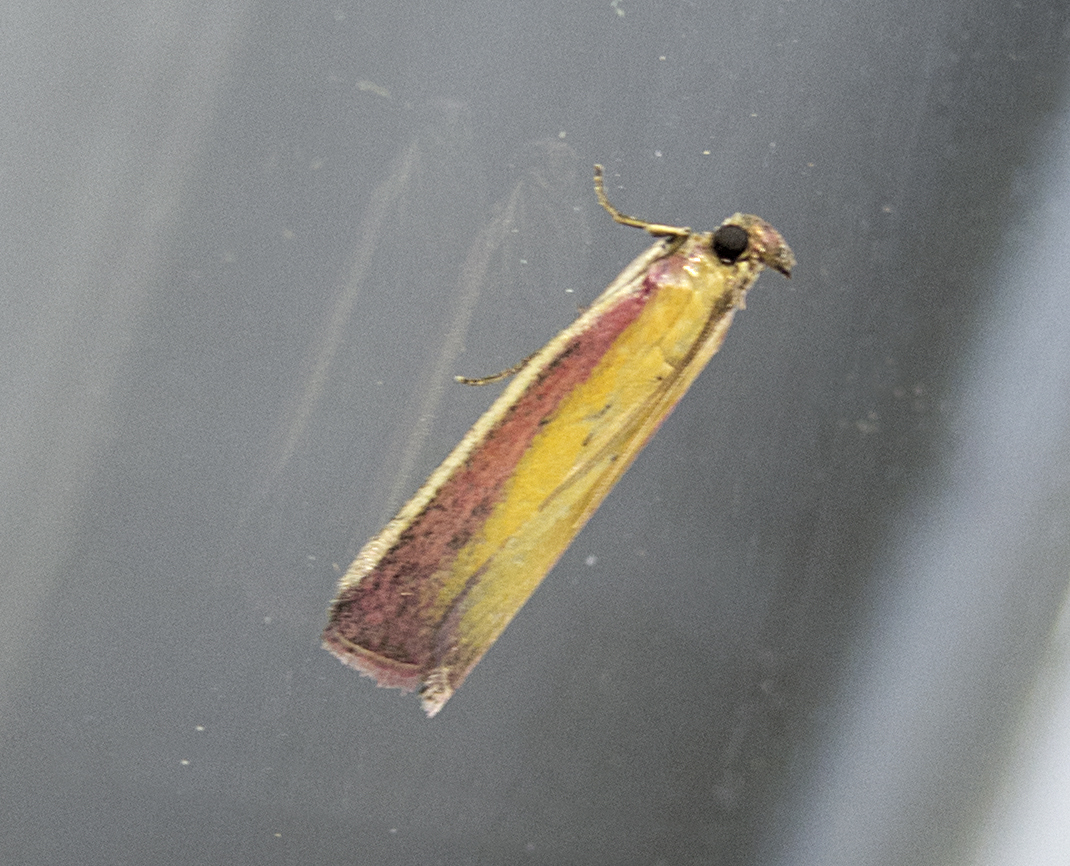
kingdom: Animalia
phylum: Arthropoda
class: Insecta
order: Lepidoptera
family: Pyralidae
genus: Oncocera
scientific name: Oncocera semirubella
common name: Rosy-striped knot-horn
